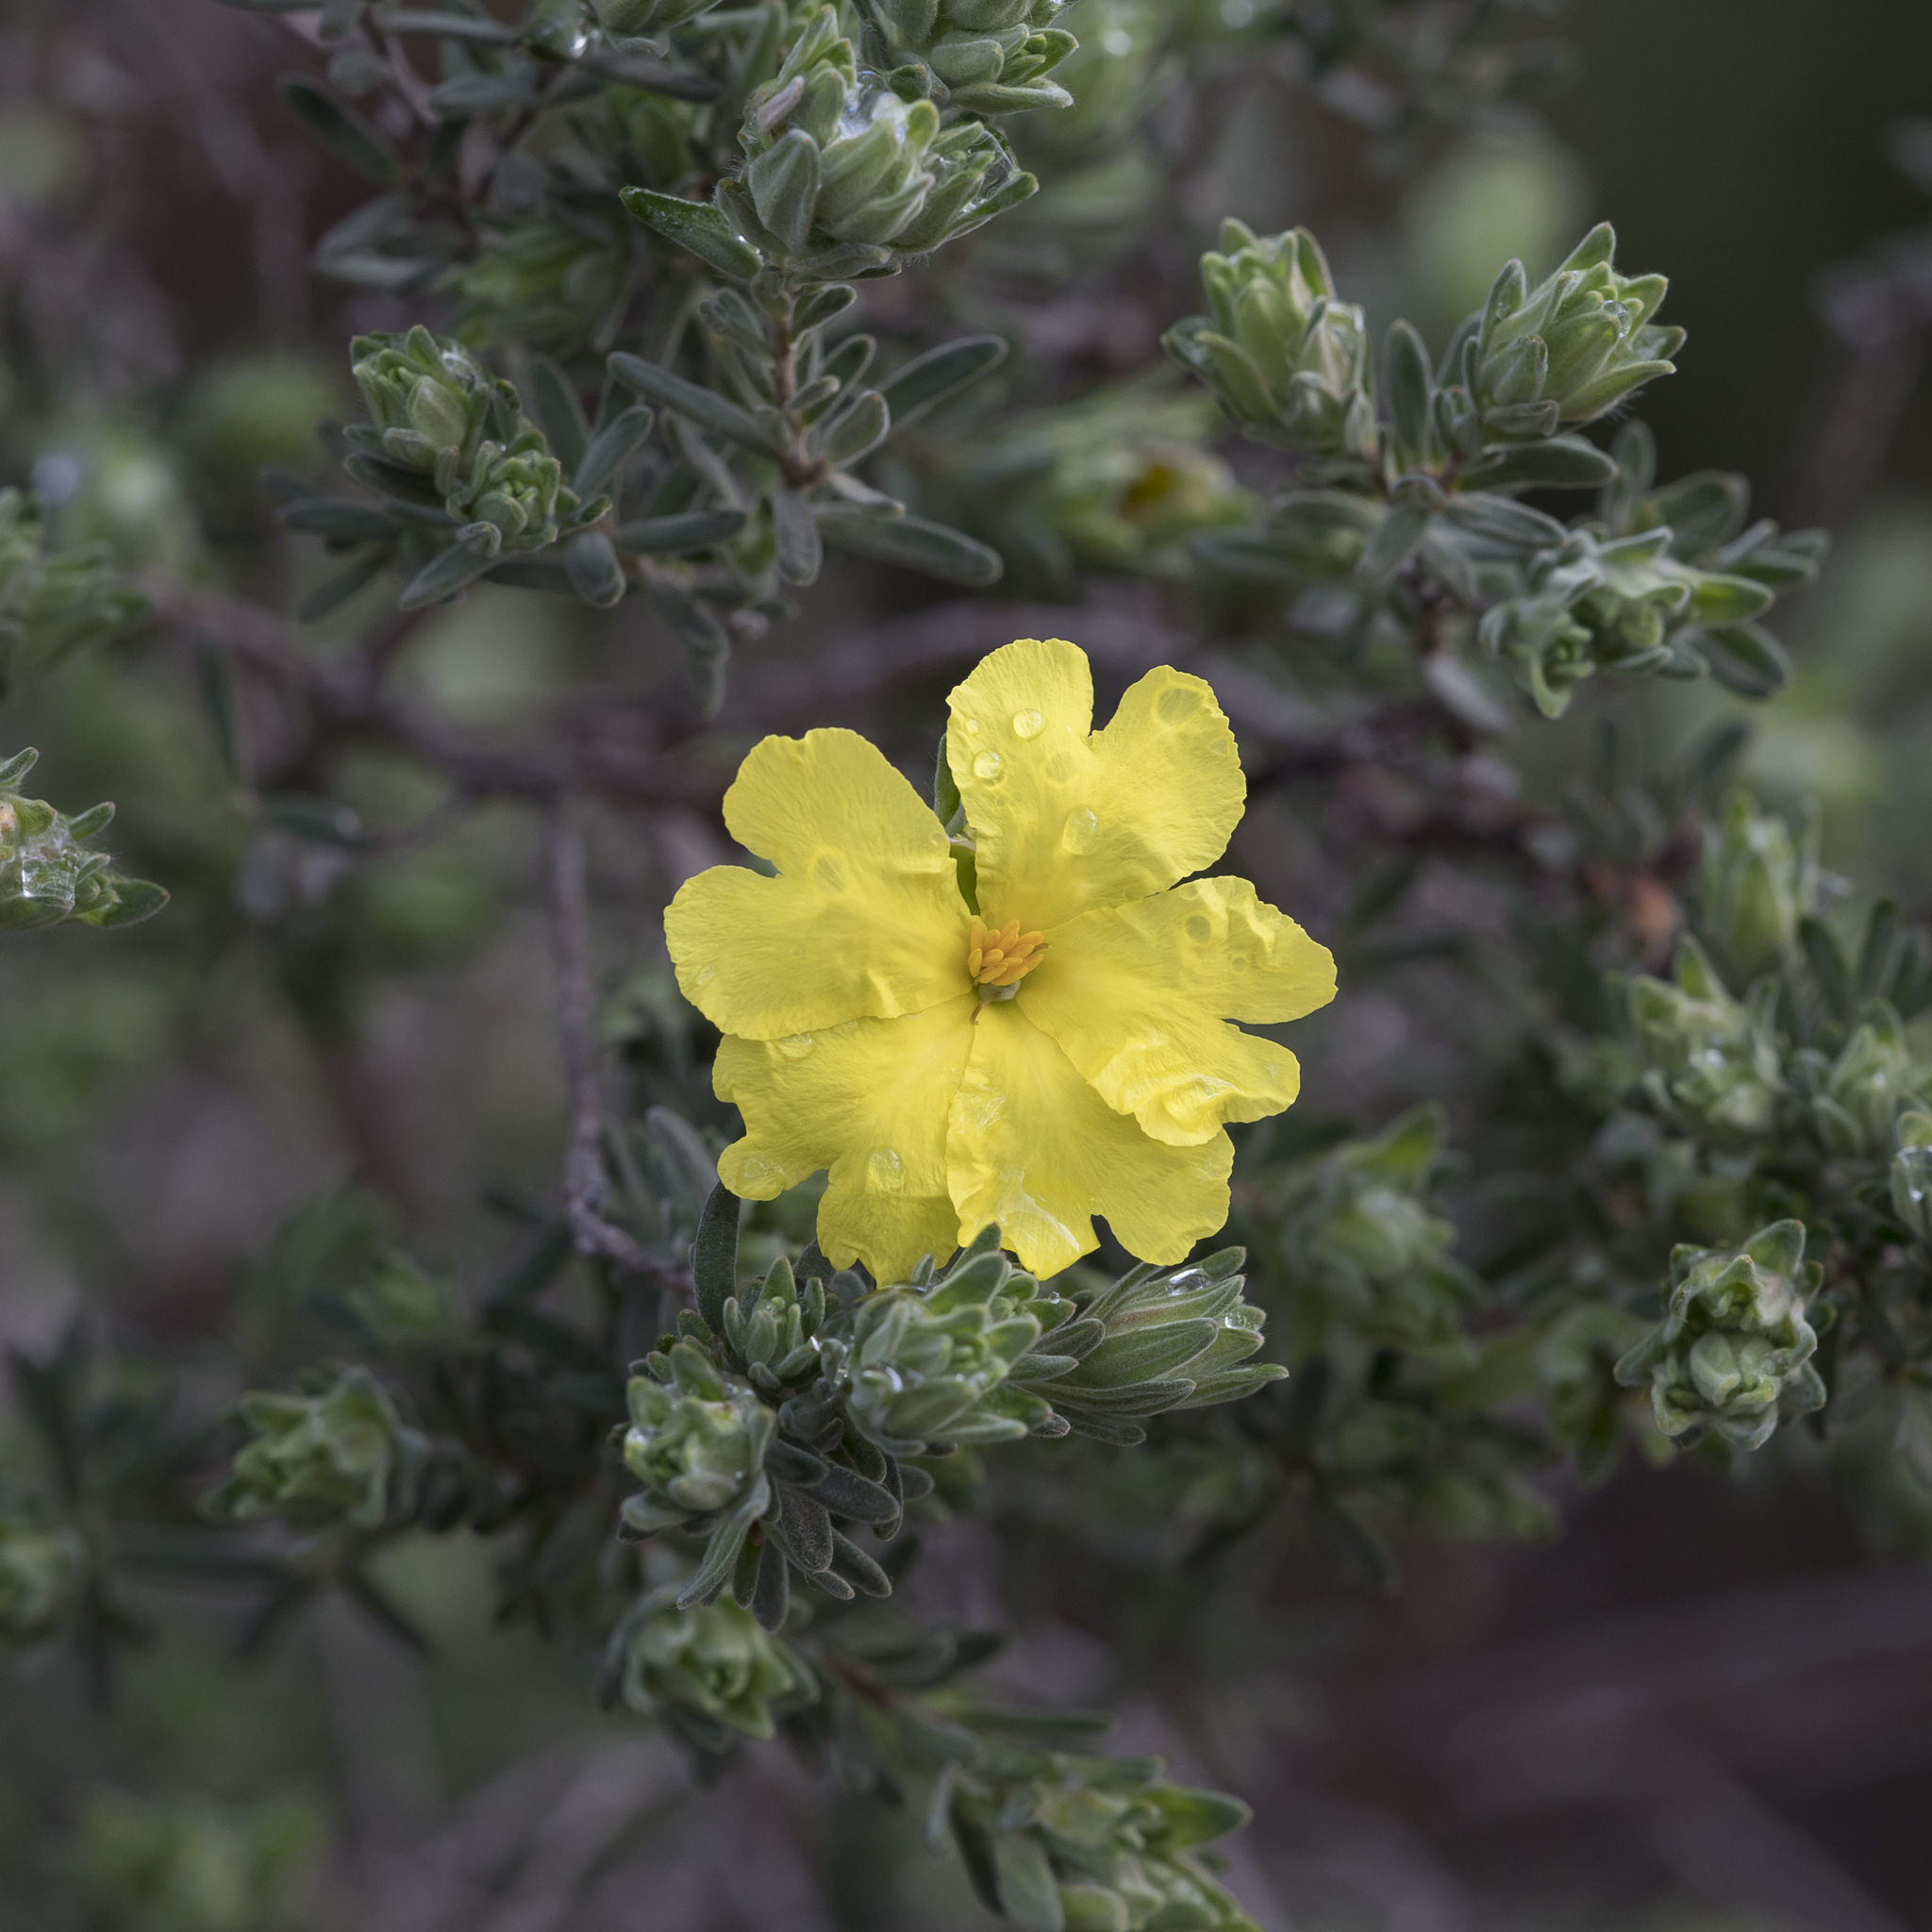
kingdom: Plantae
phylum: Tracheophyta
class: Magnoliopsida
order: Dilleniales
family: Dilleniaceae
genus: Hibbertia
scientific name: Hibbertia crinita
